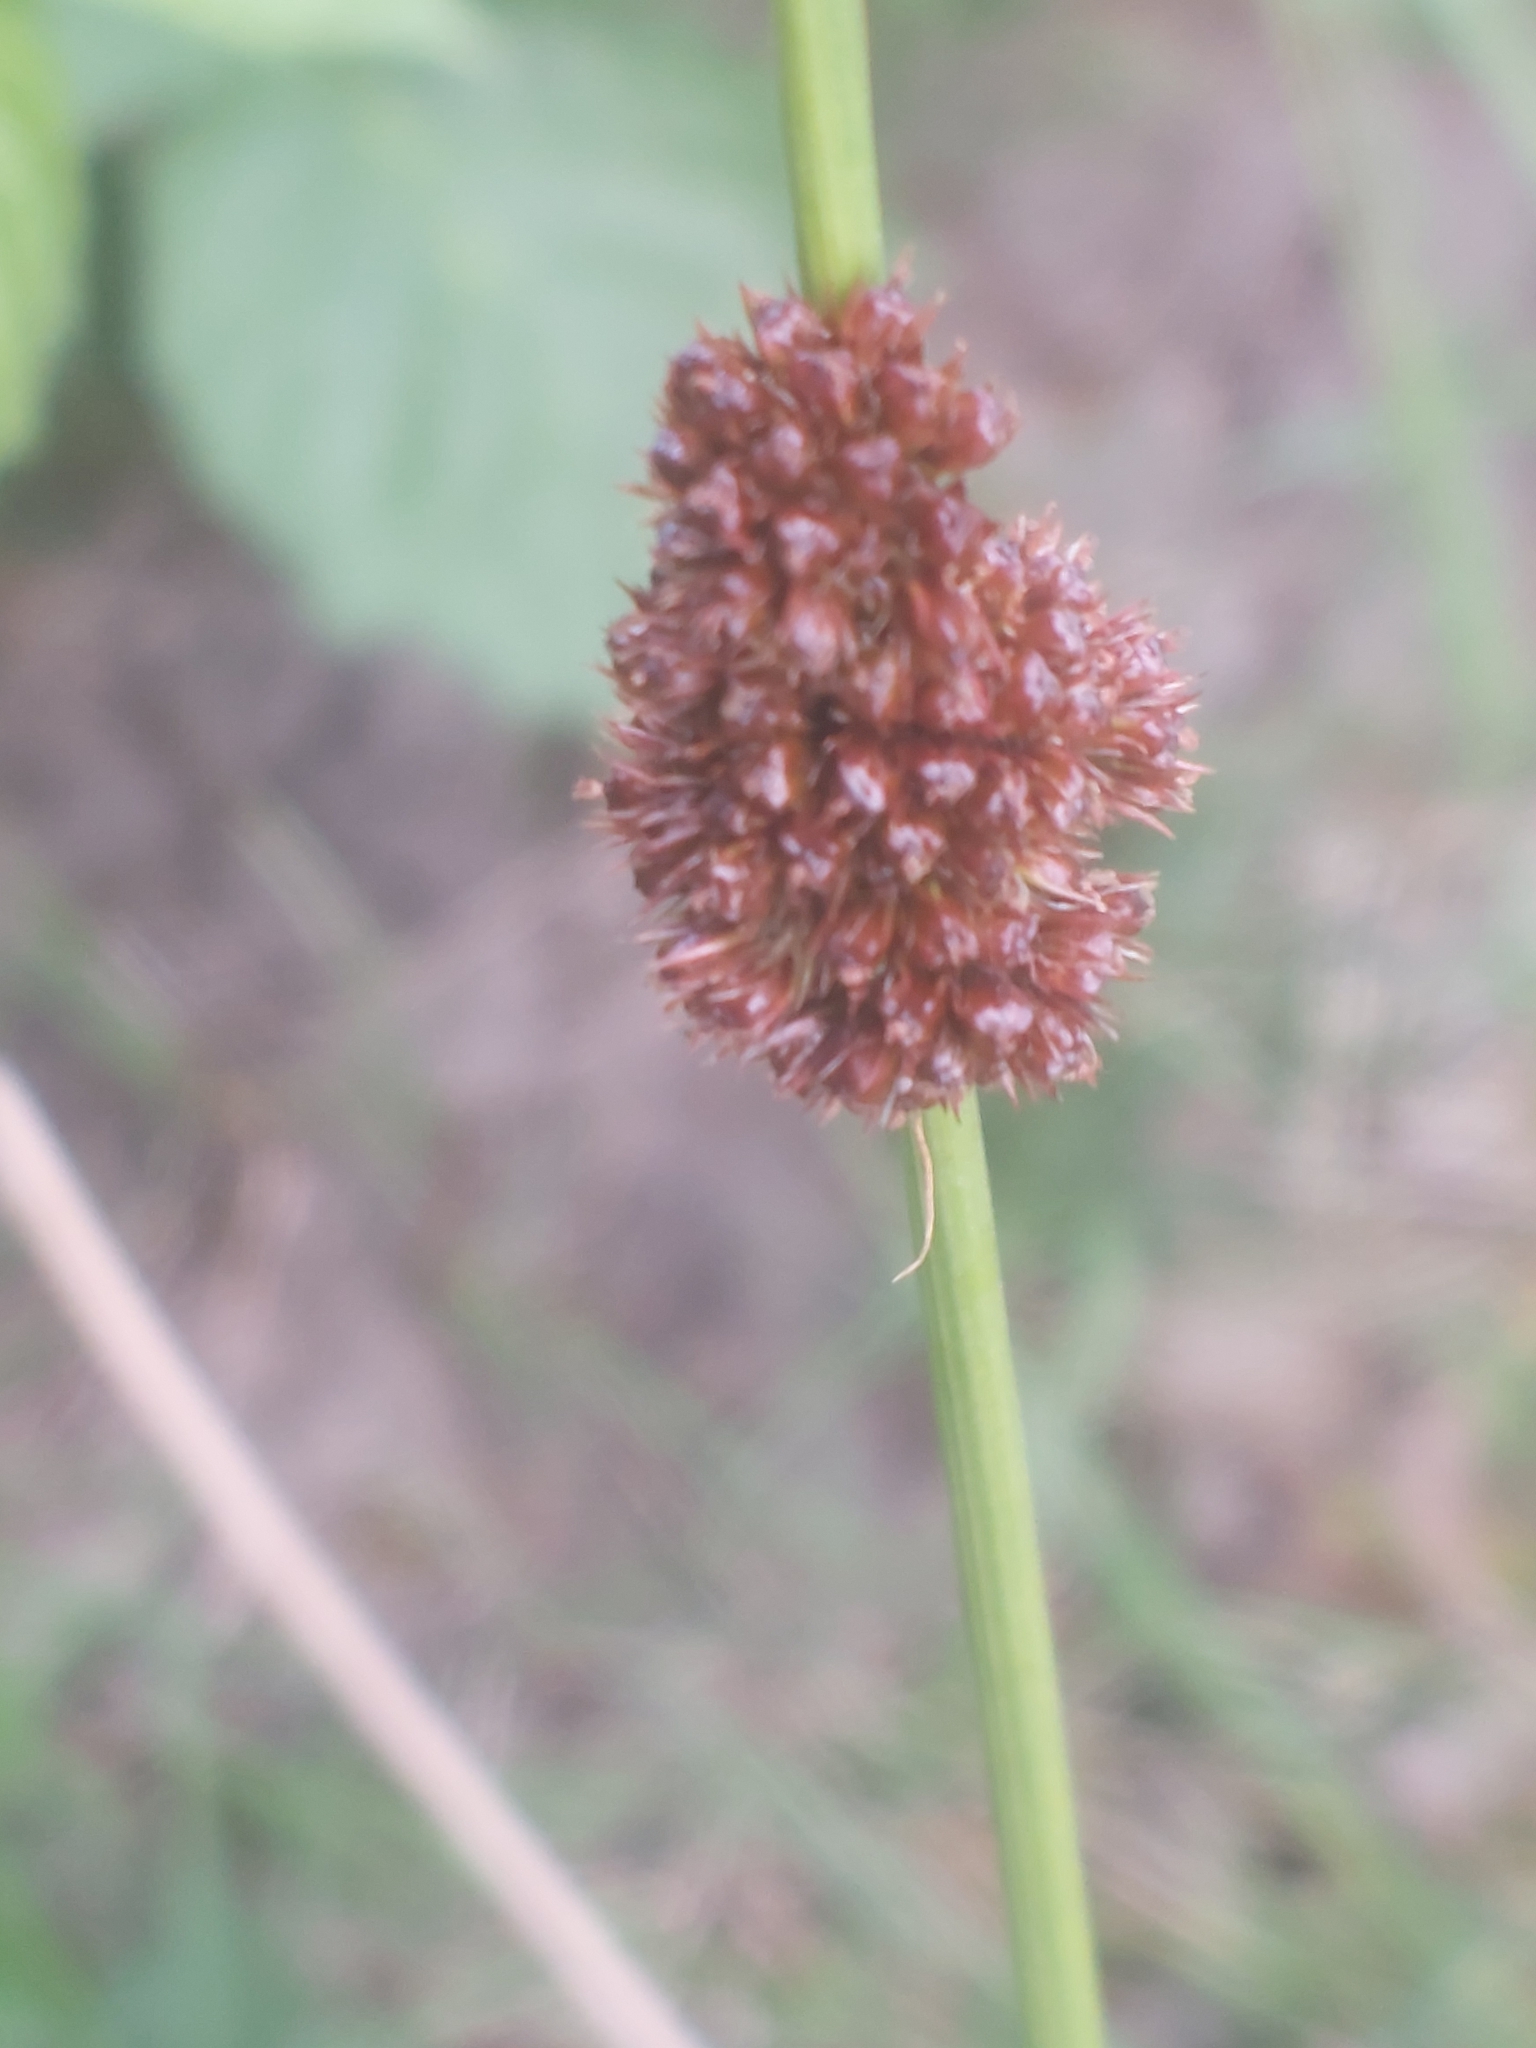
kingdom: Plantae
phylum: Tracheophyta
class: Liliopsida
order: Poales
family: Juncaceae
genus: Juncus
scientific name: Juncus conglomeratus
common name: Compact rush
